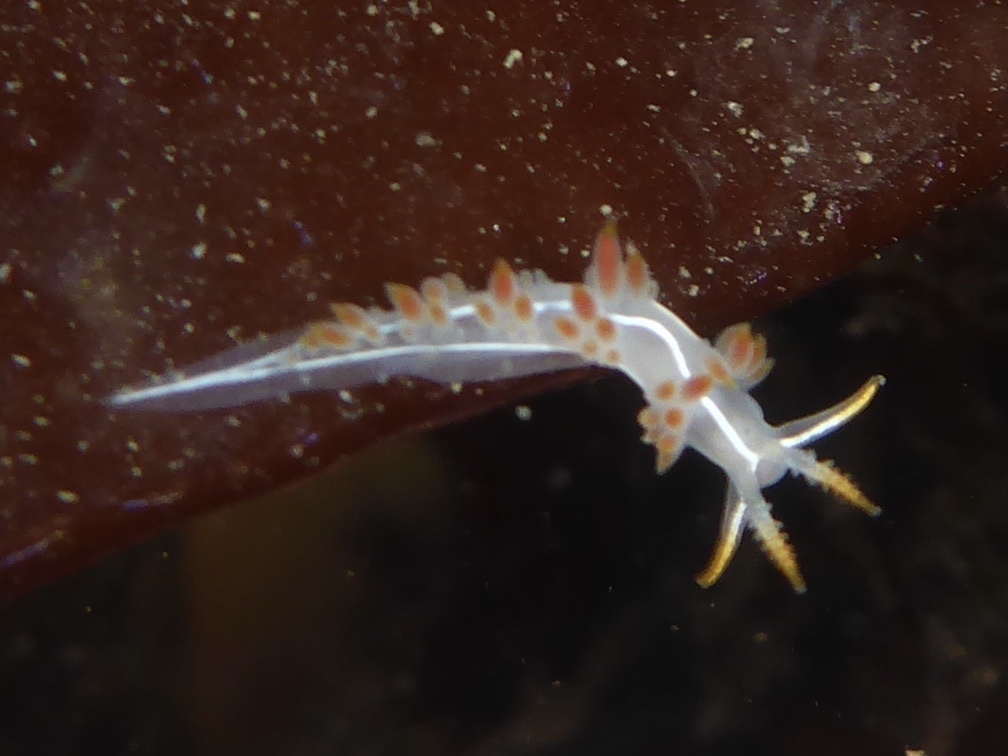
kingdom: Animalia
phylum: Mollusca
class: Gastropoda
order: Nudibranchia
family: Coryphellidae
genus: Coryphella
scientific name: Coryphella trilineata
